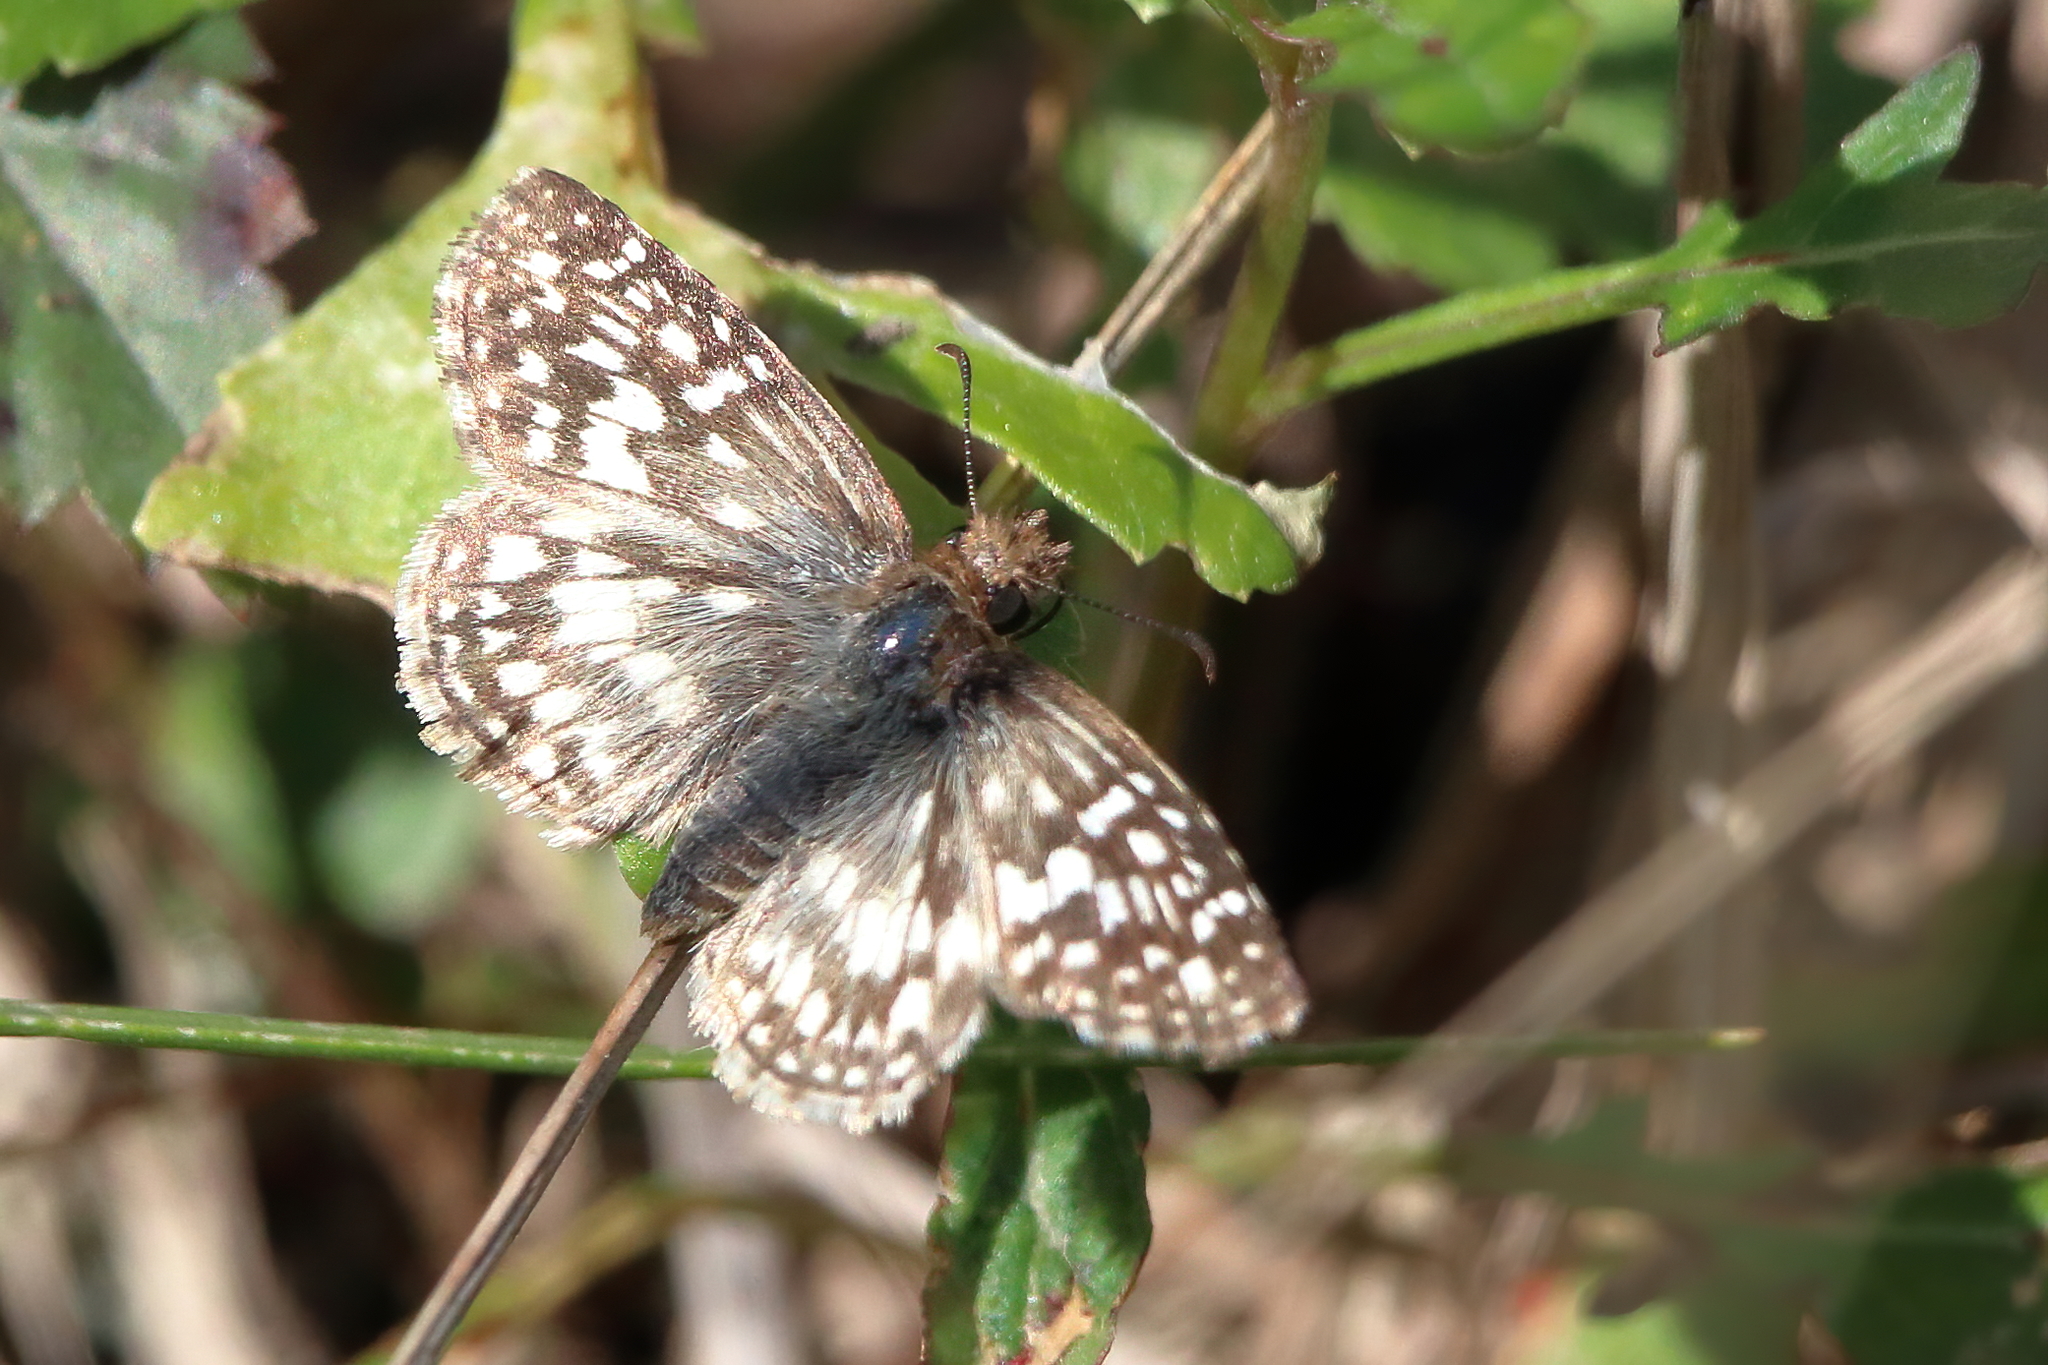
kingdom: Animalia
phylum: Arthropoda
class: Insecta
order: Lepidoptera
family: Hesperiidae
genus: Pyrgus
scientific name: Pyrgus oileus
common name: Tropical checkered-skipper
